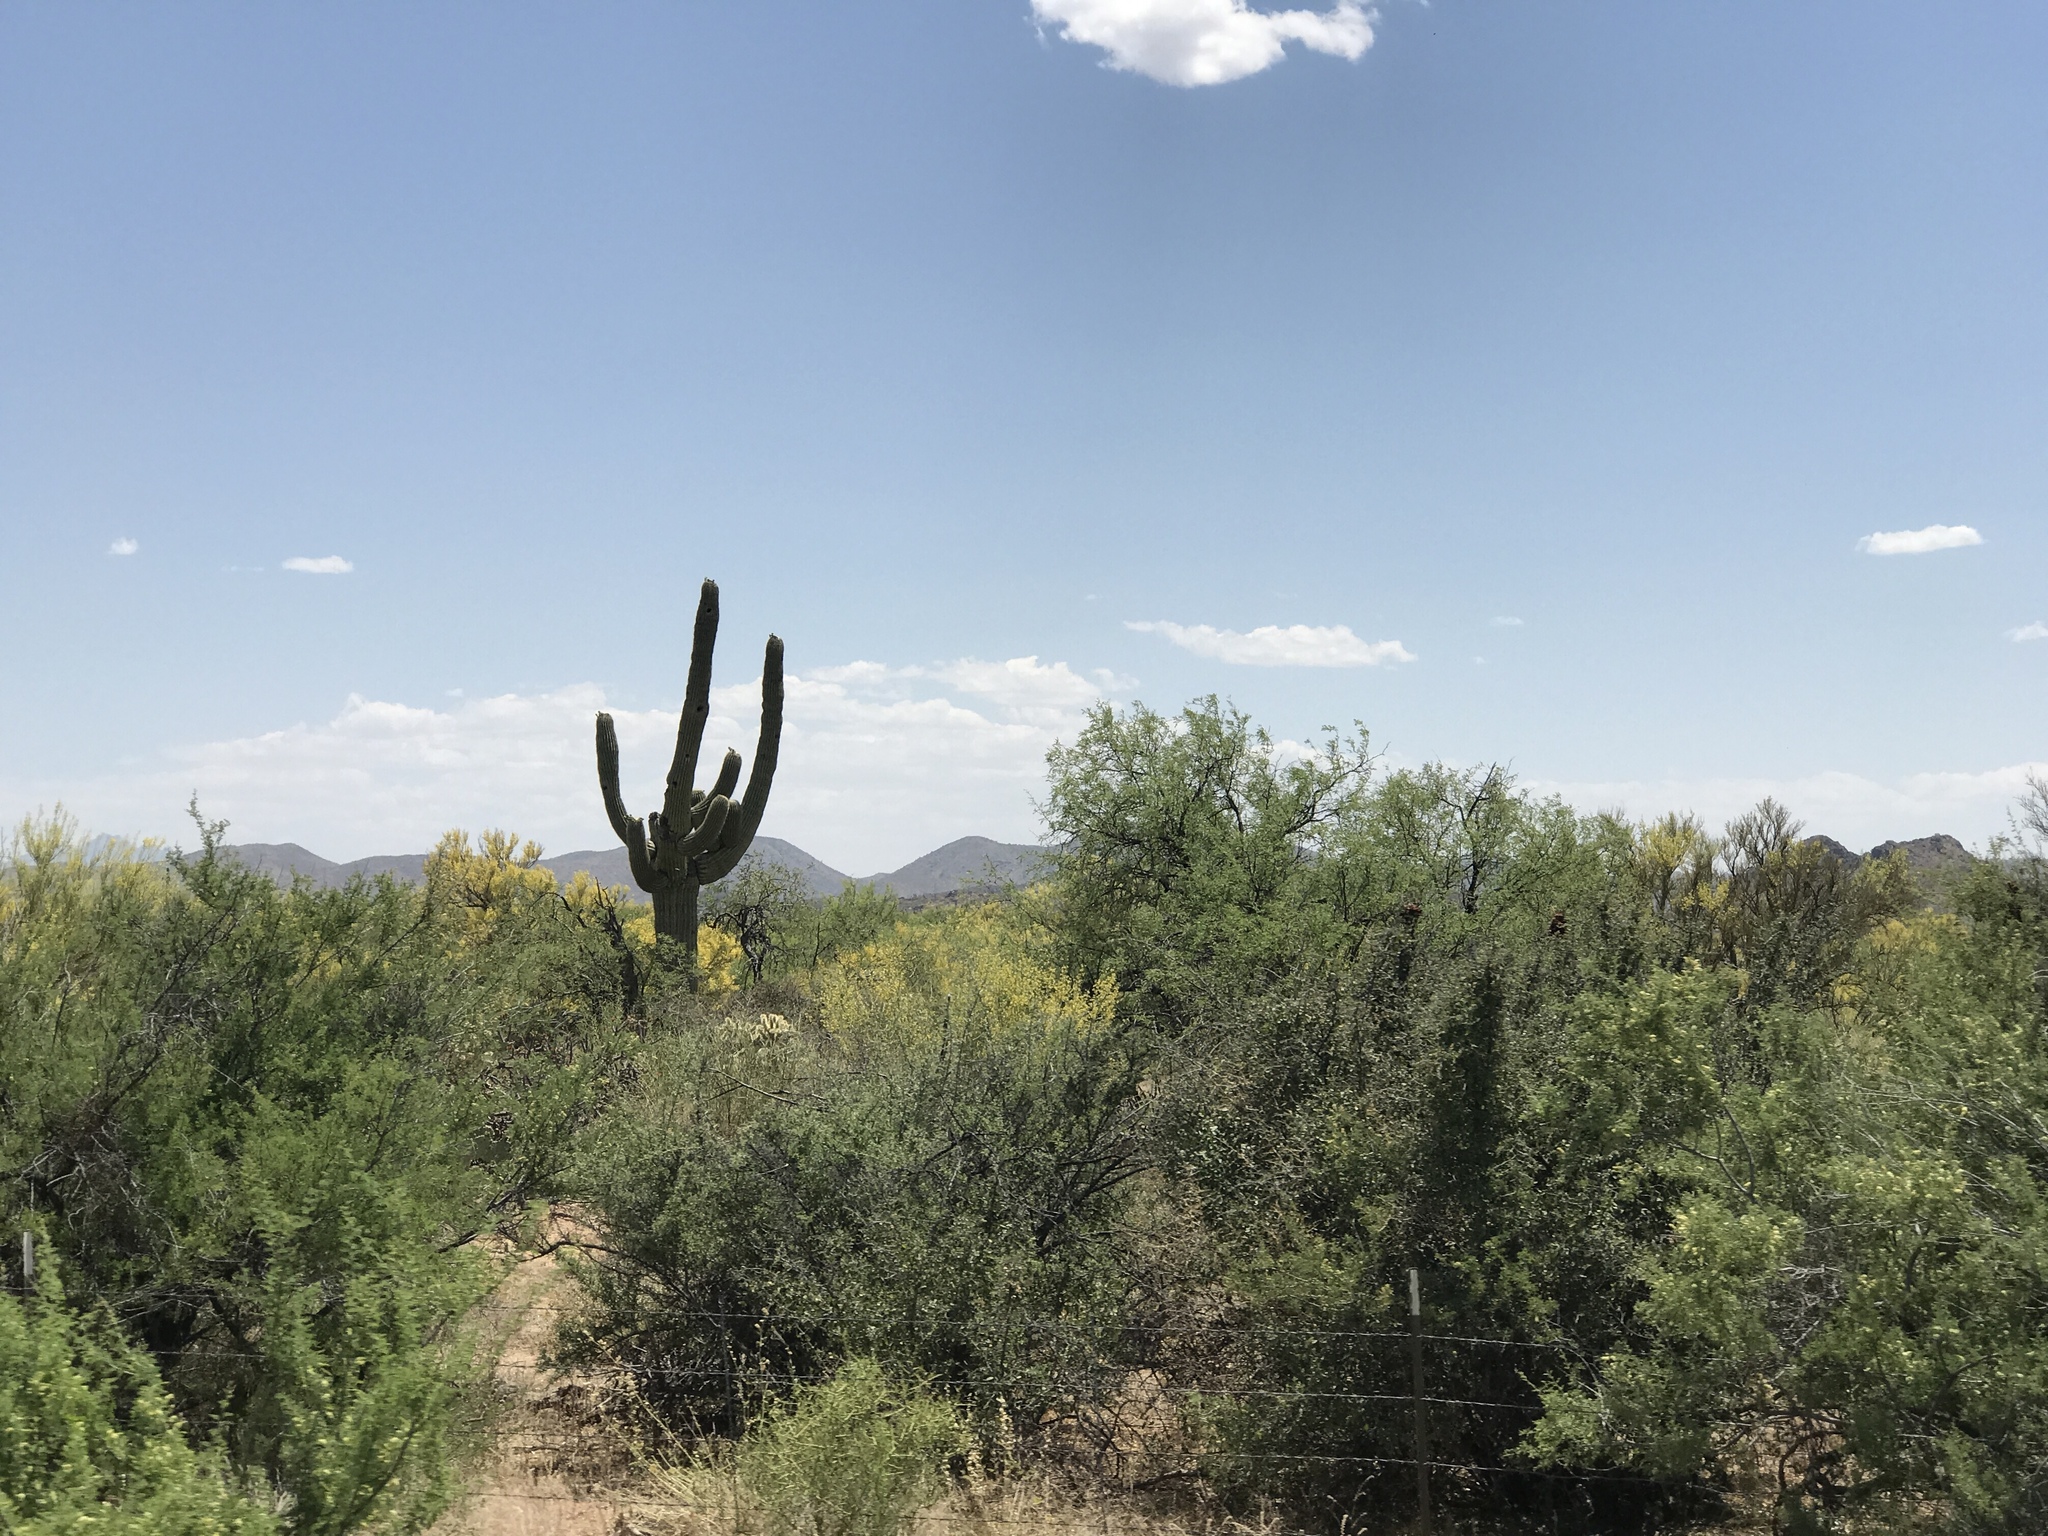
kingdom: Plantae
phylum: Tracheophyta
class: Magnoliopsida
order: Caryophyllales
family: Cactaceae
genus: Carnegiea
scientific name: Carnegiea gigantea
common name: Saguaro
